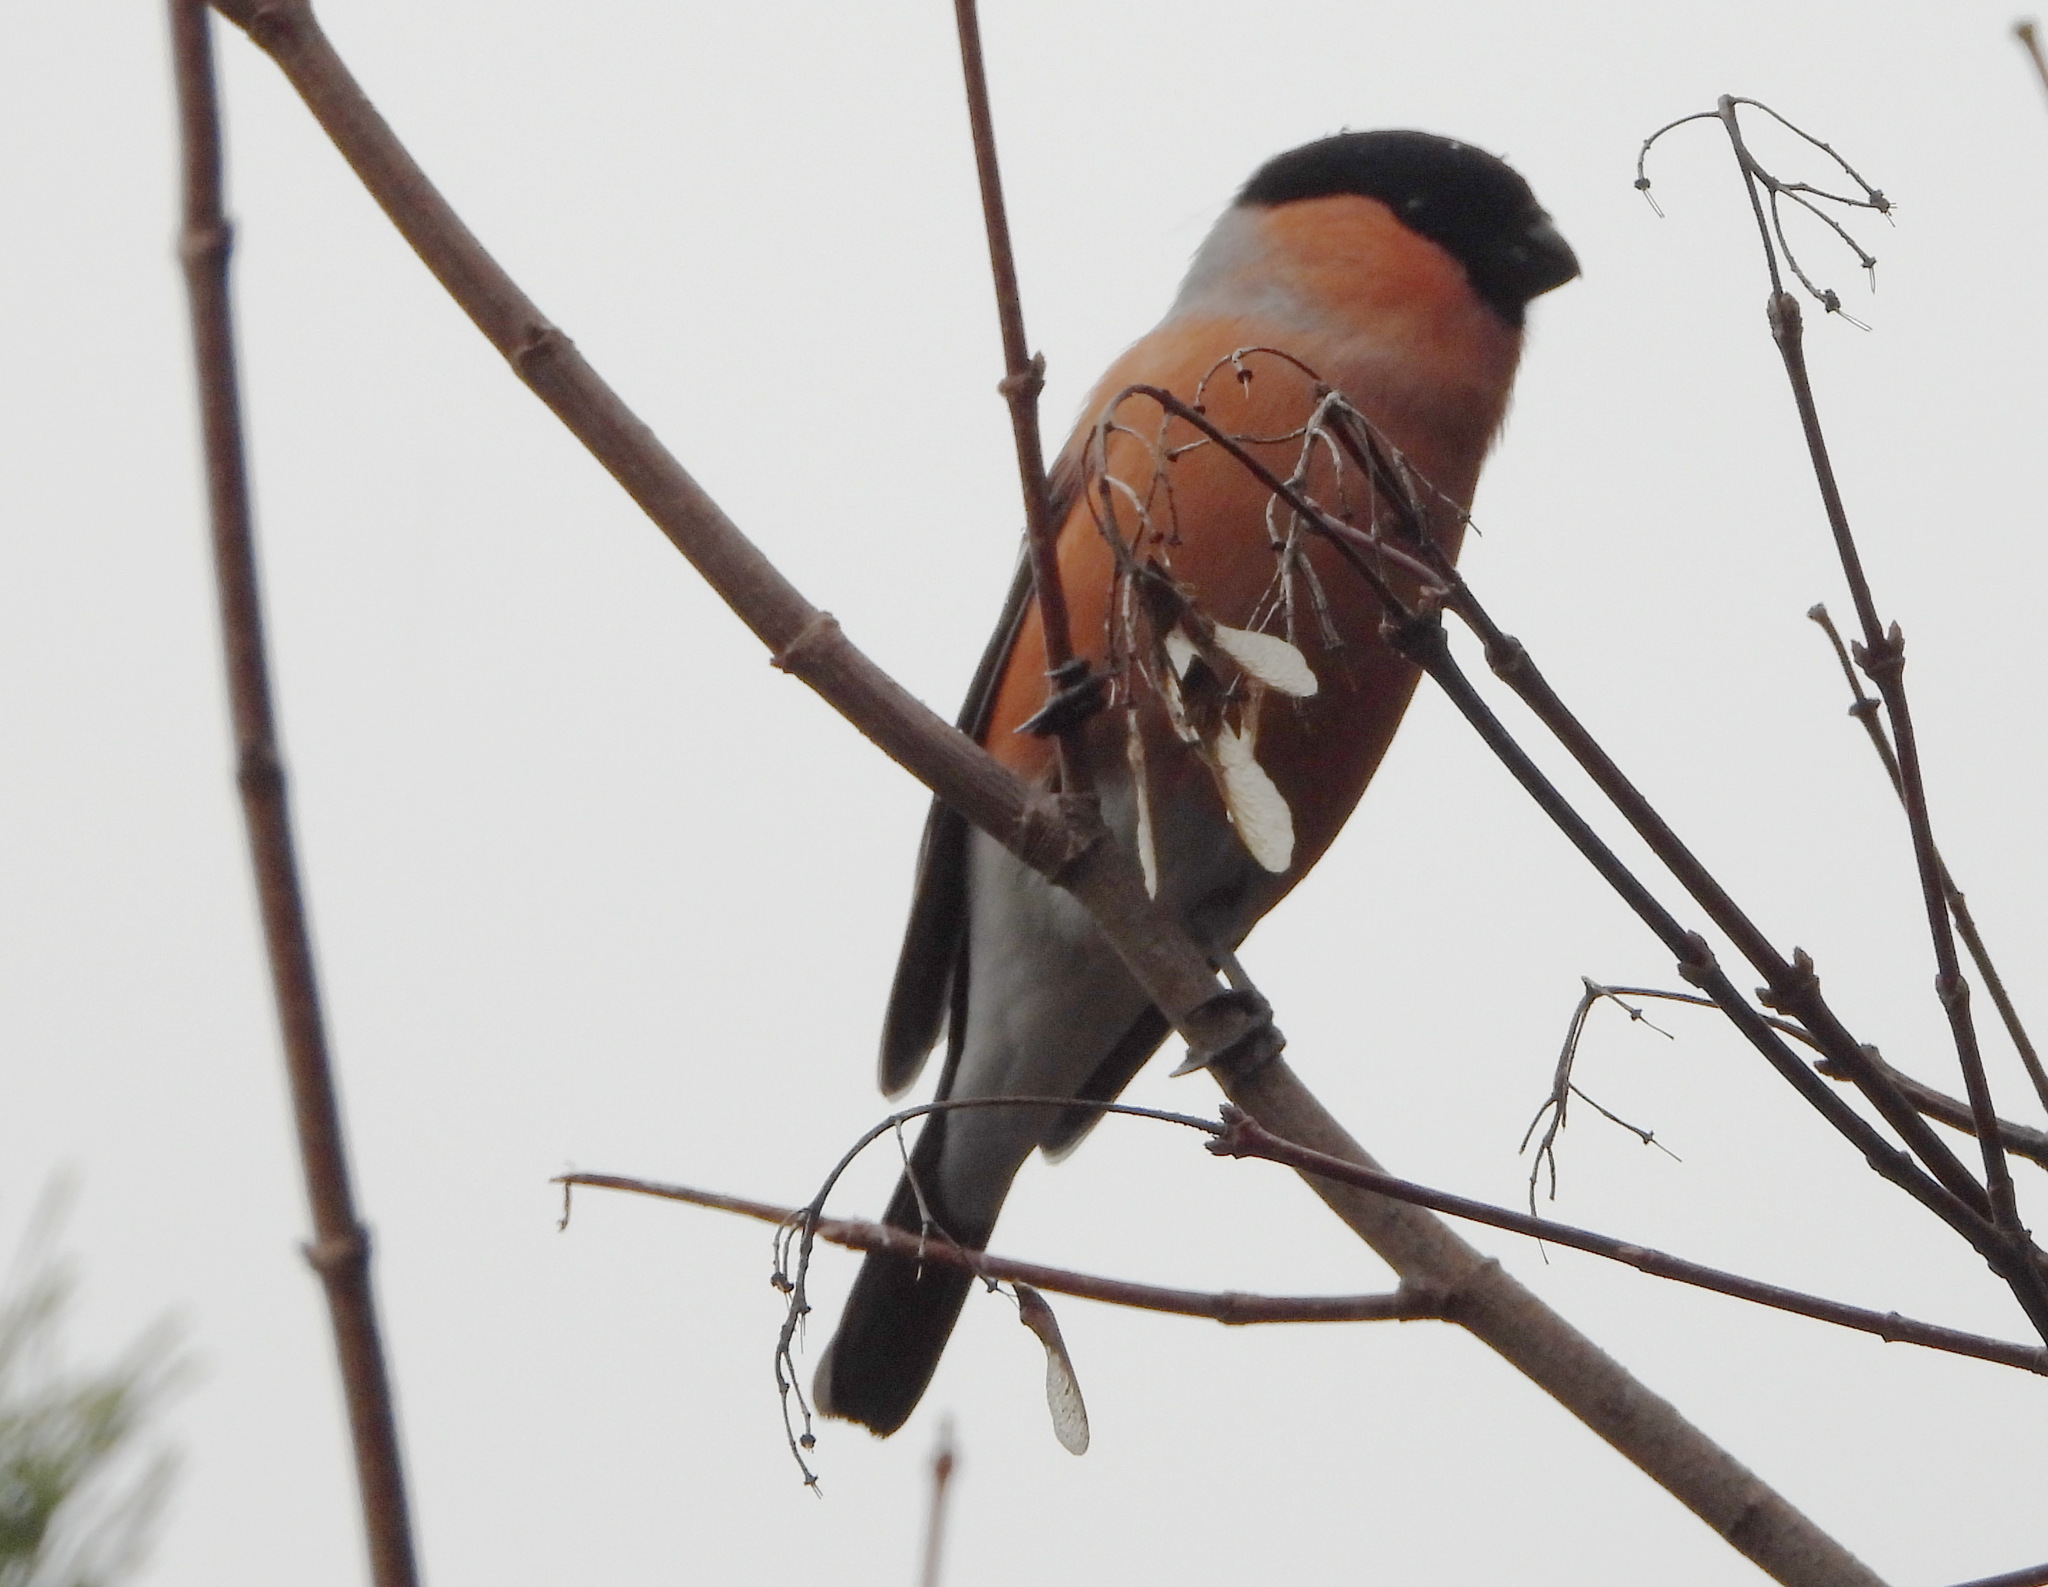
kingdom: Animalia
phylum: Chordata
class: Aves
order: Passeriformes
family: Fringillidae
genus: Pyrrhula
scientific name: Pyrrhula pyrrhula
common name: Eurasian bullfinch
